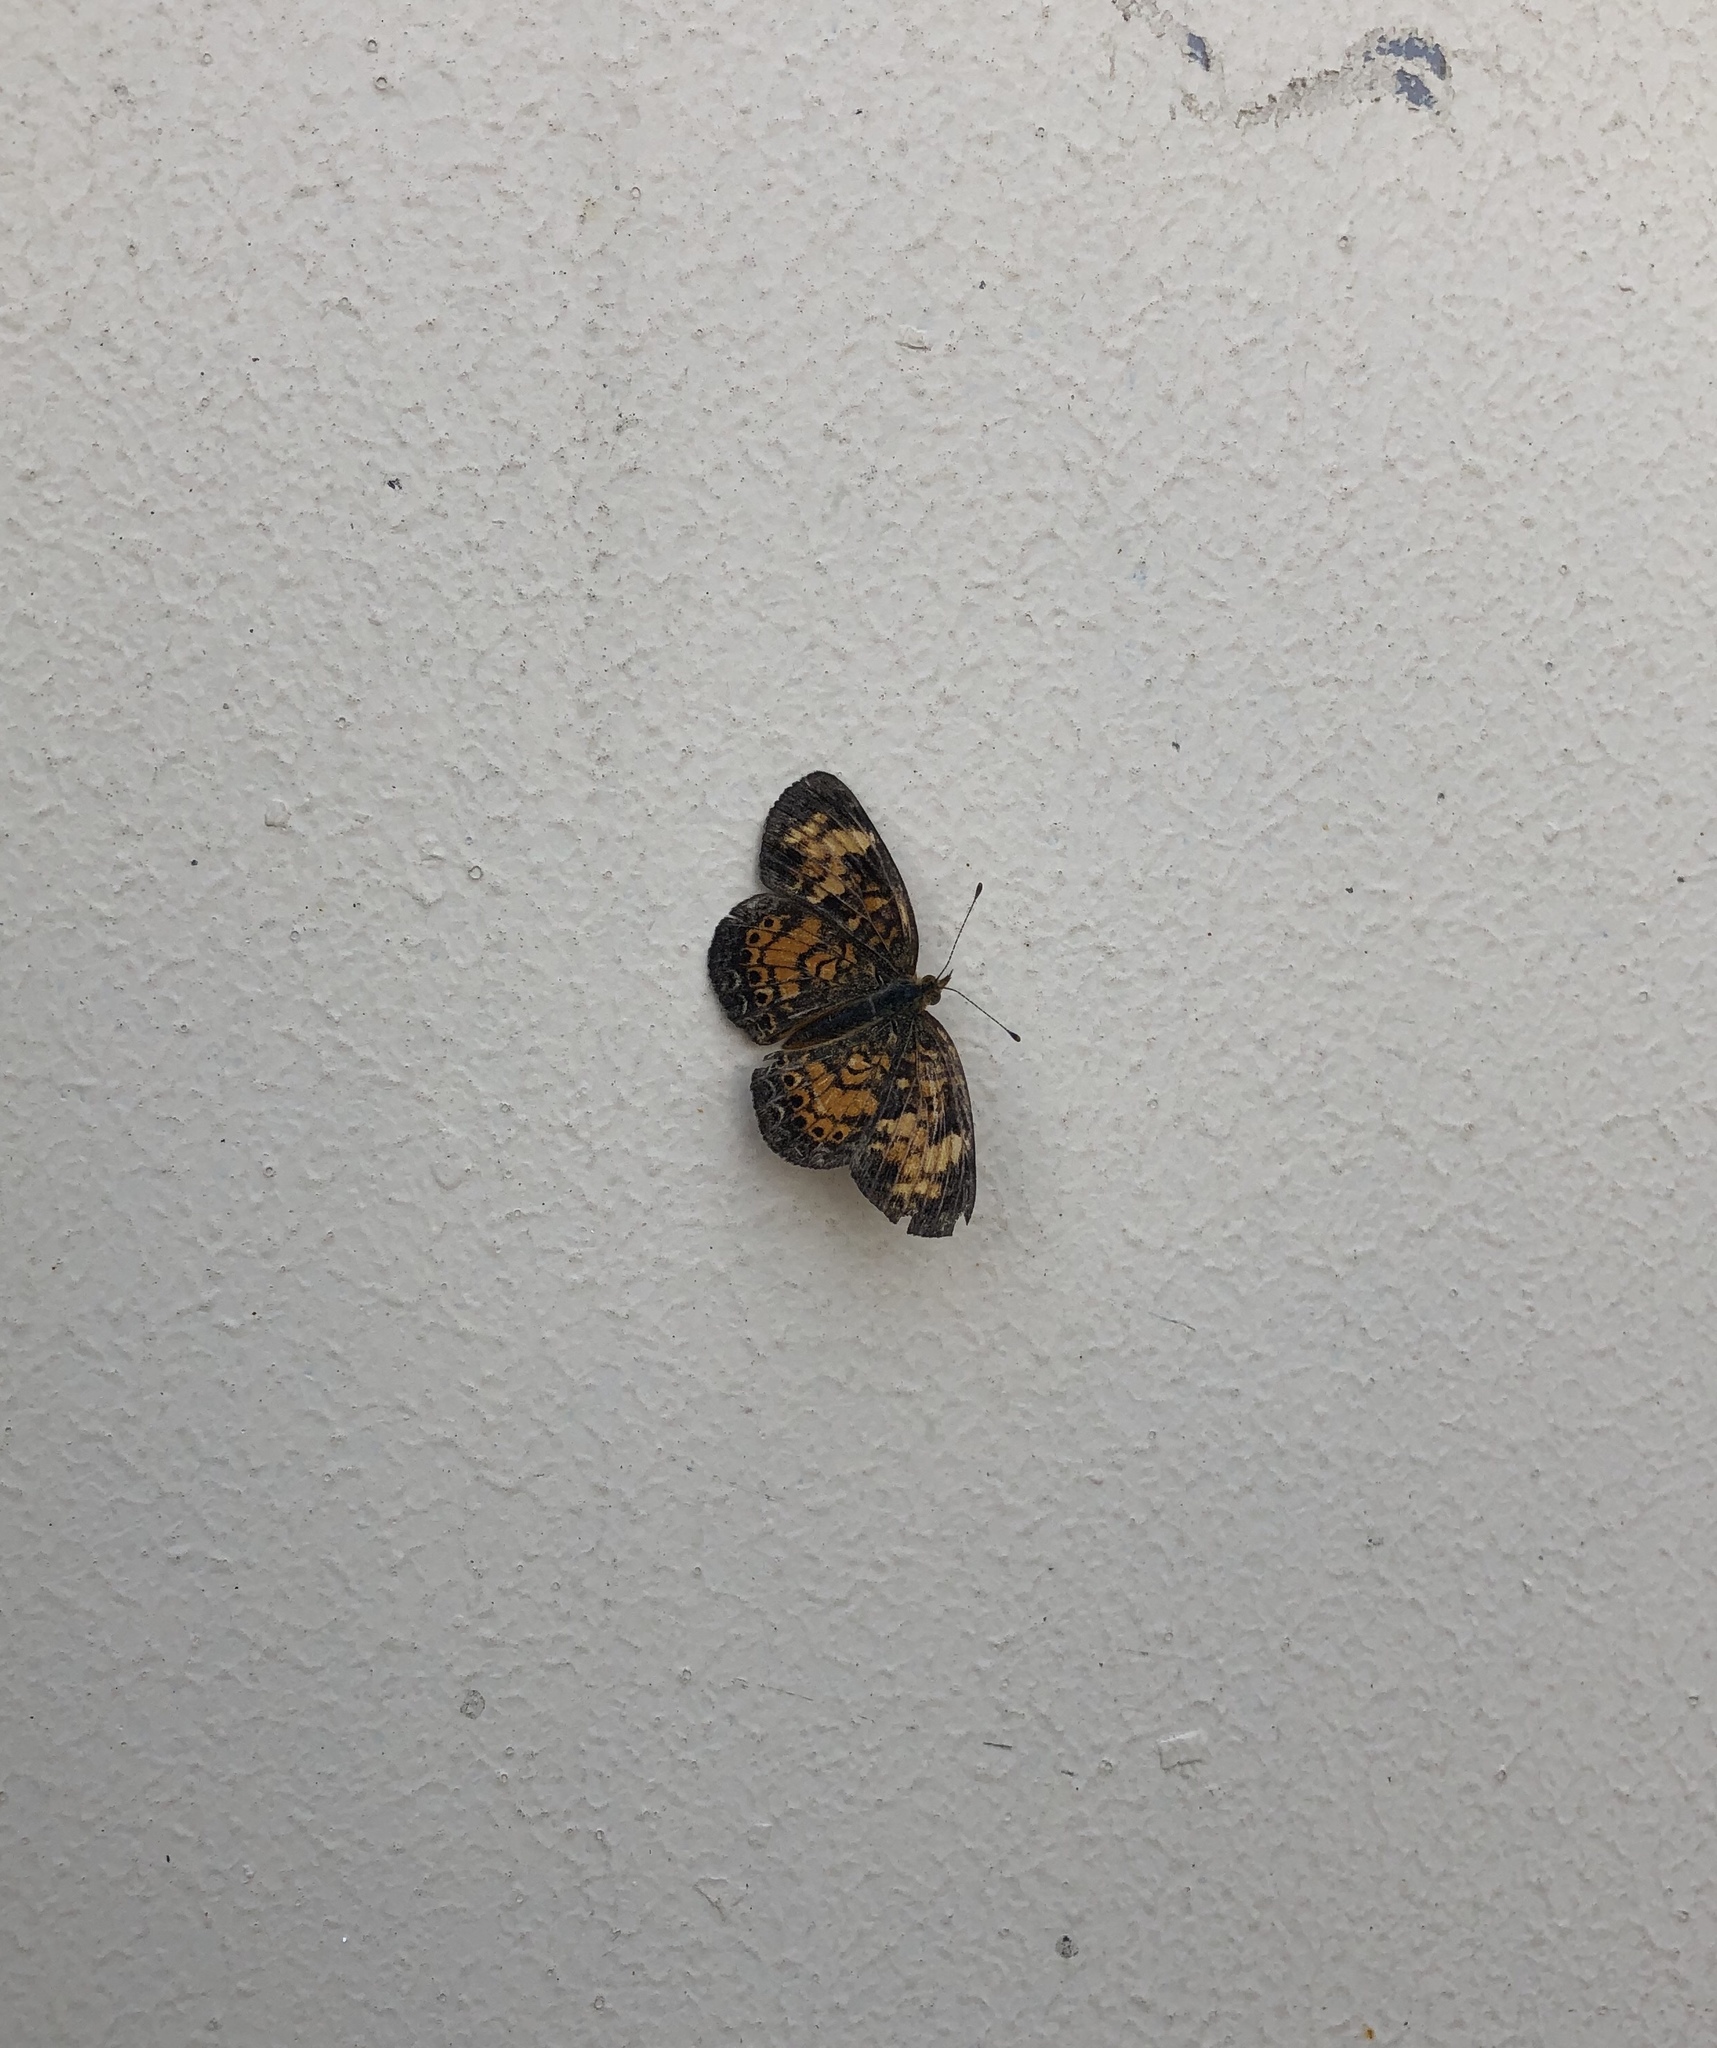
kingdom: Animalia
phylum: Arthropoda
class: Insecta
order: Lepidoptera
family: Nymphalidae
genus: Phyciodes
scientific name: Phyciodes tharos
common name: Pearl crescent
